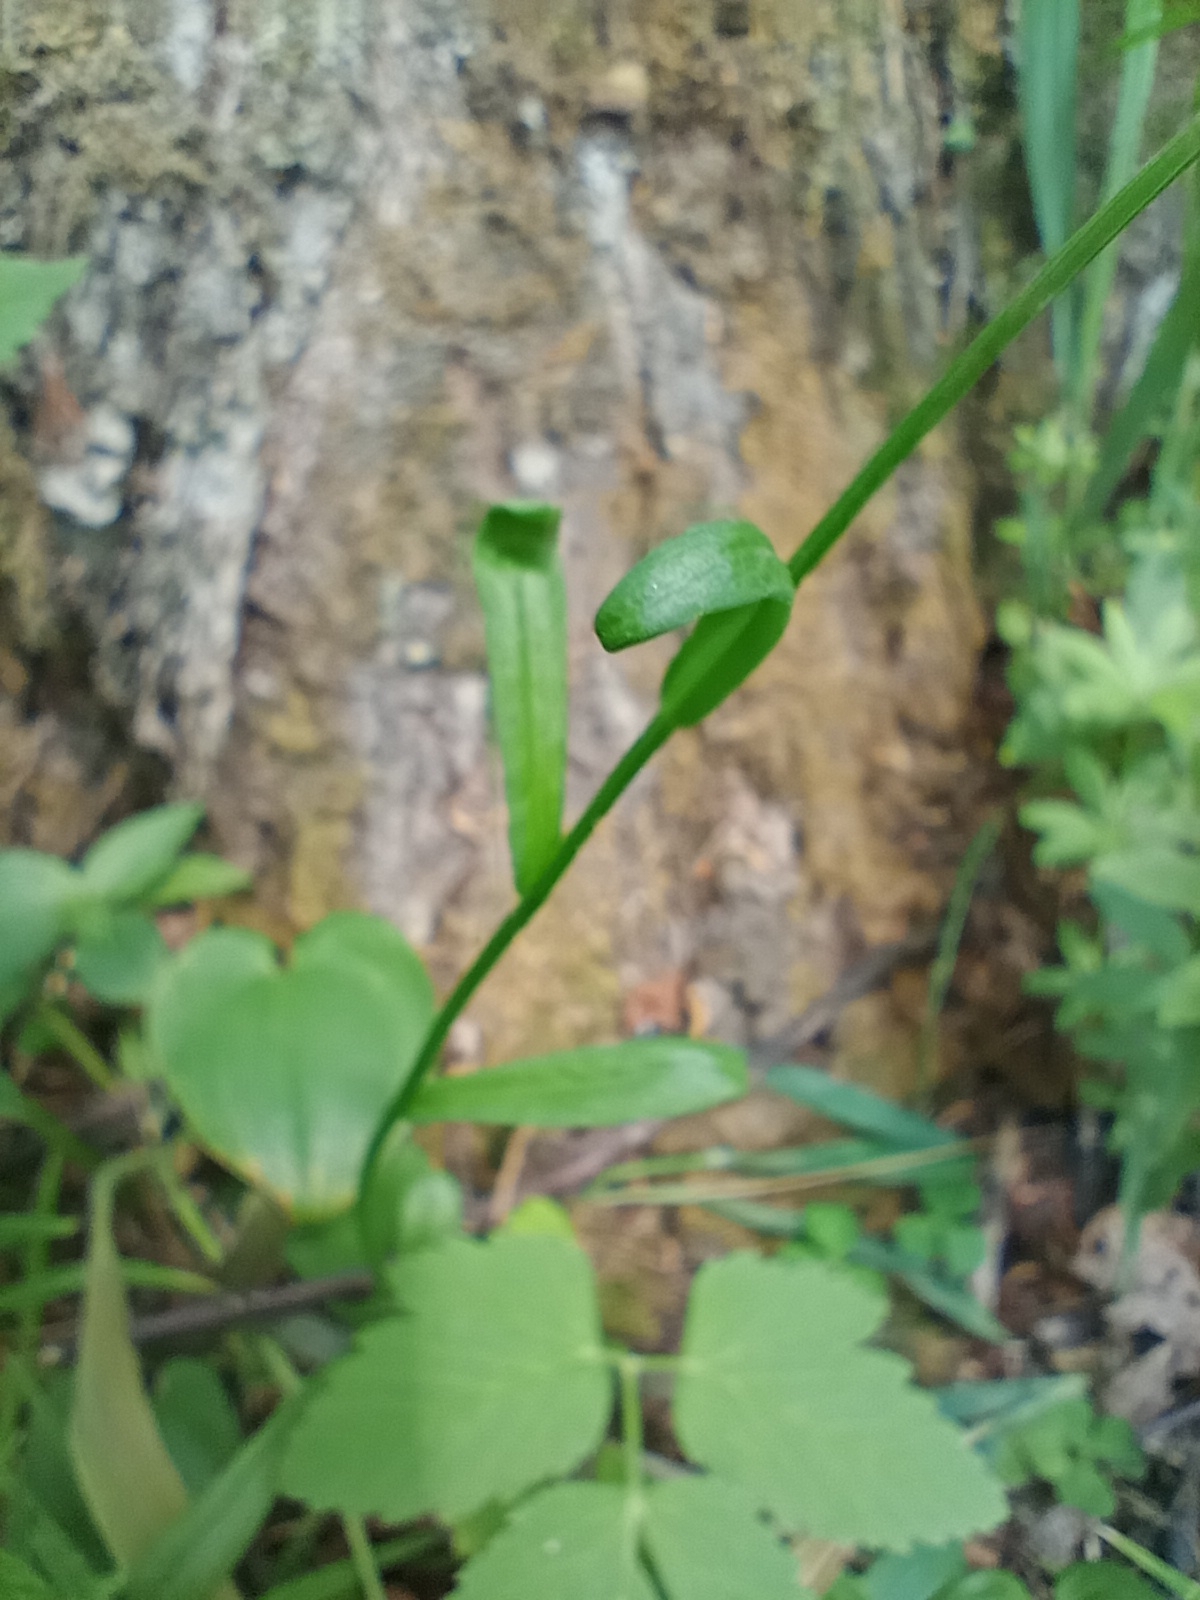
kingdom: Plantae
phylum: Tracheophyta
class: Magnoliopsida
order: Asterales
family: Campanulaceae
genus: Campanula
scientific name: Campanula patula
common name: Spreading bellflower
